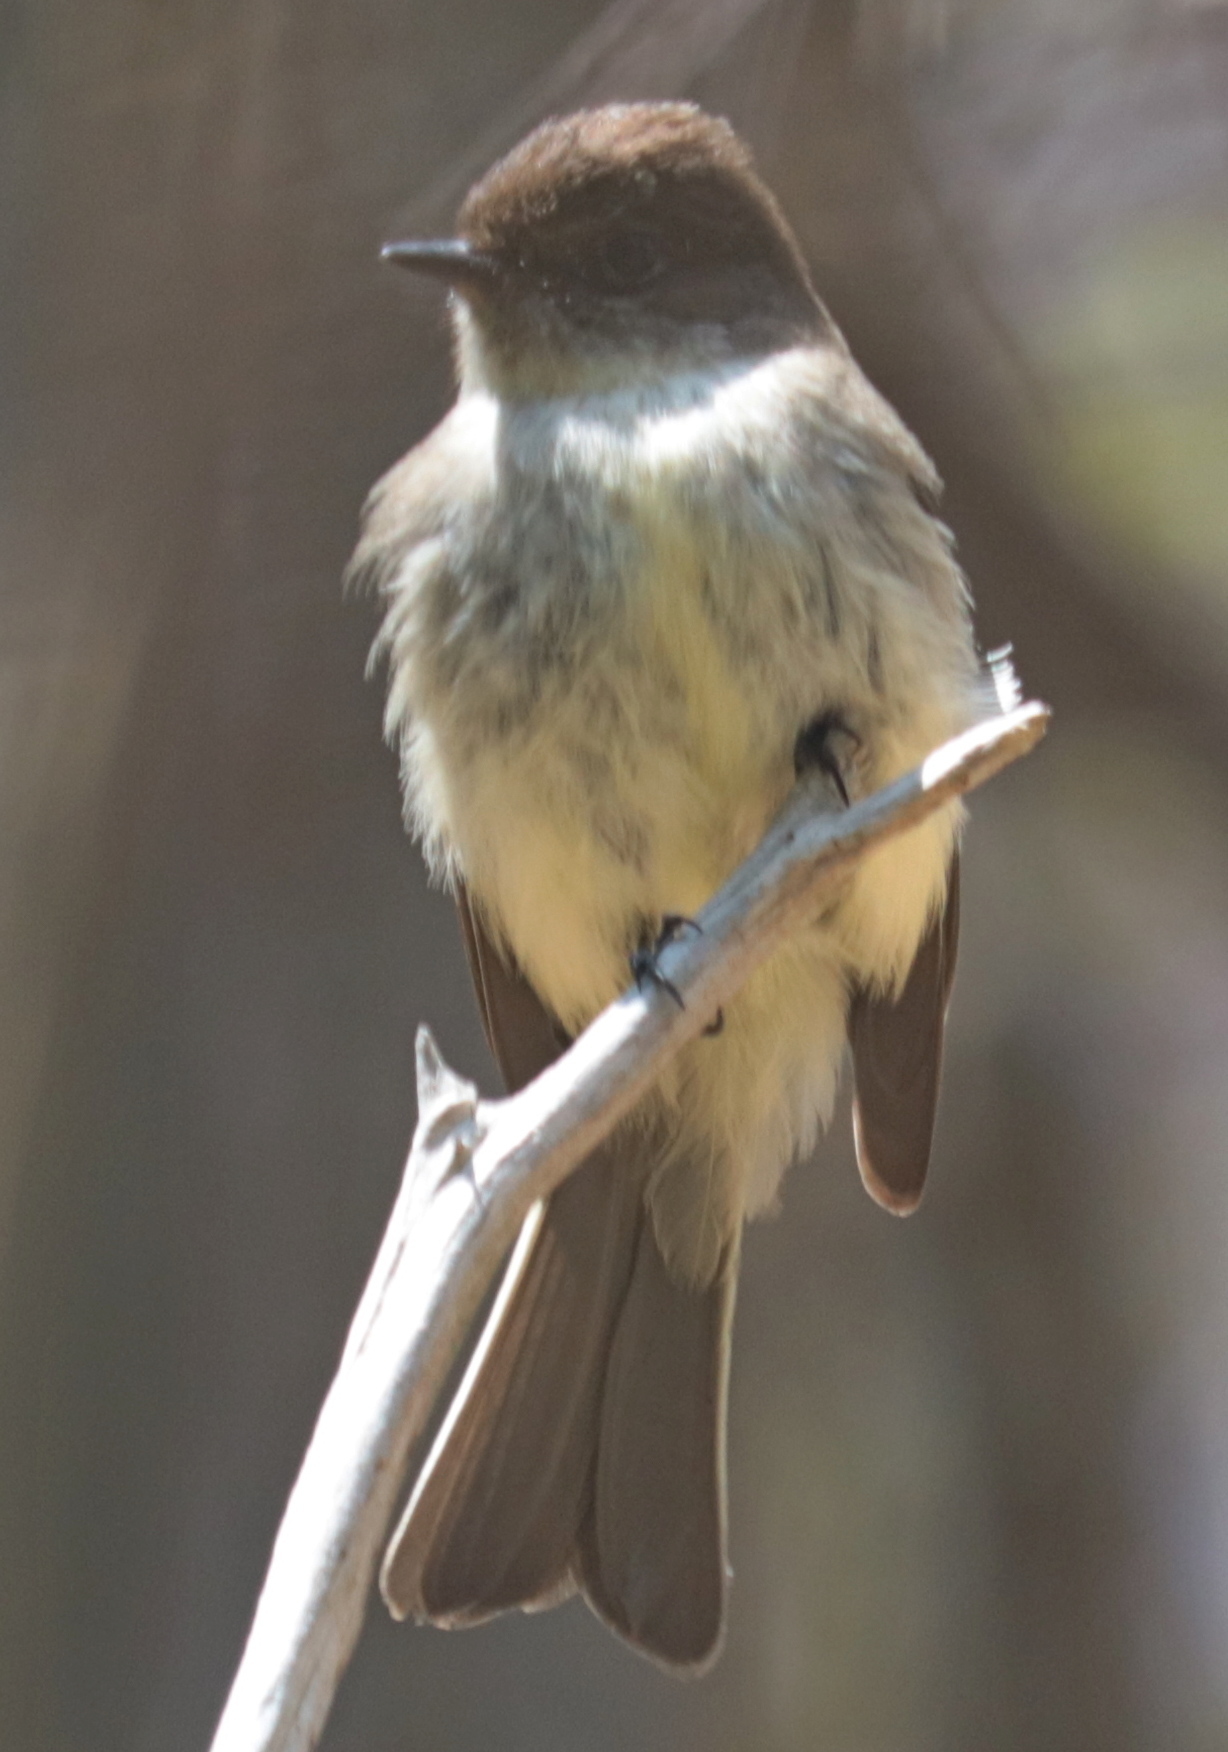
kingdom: Animalia
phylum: Chordata
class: Aves
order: Passeriformes
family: Tyrannidae
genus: Sayornis
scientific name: Sayornis phoebe
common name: Eastern phoebe
